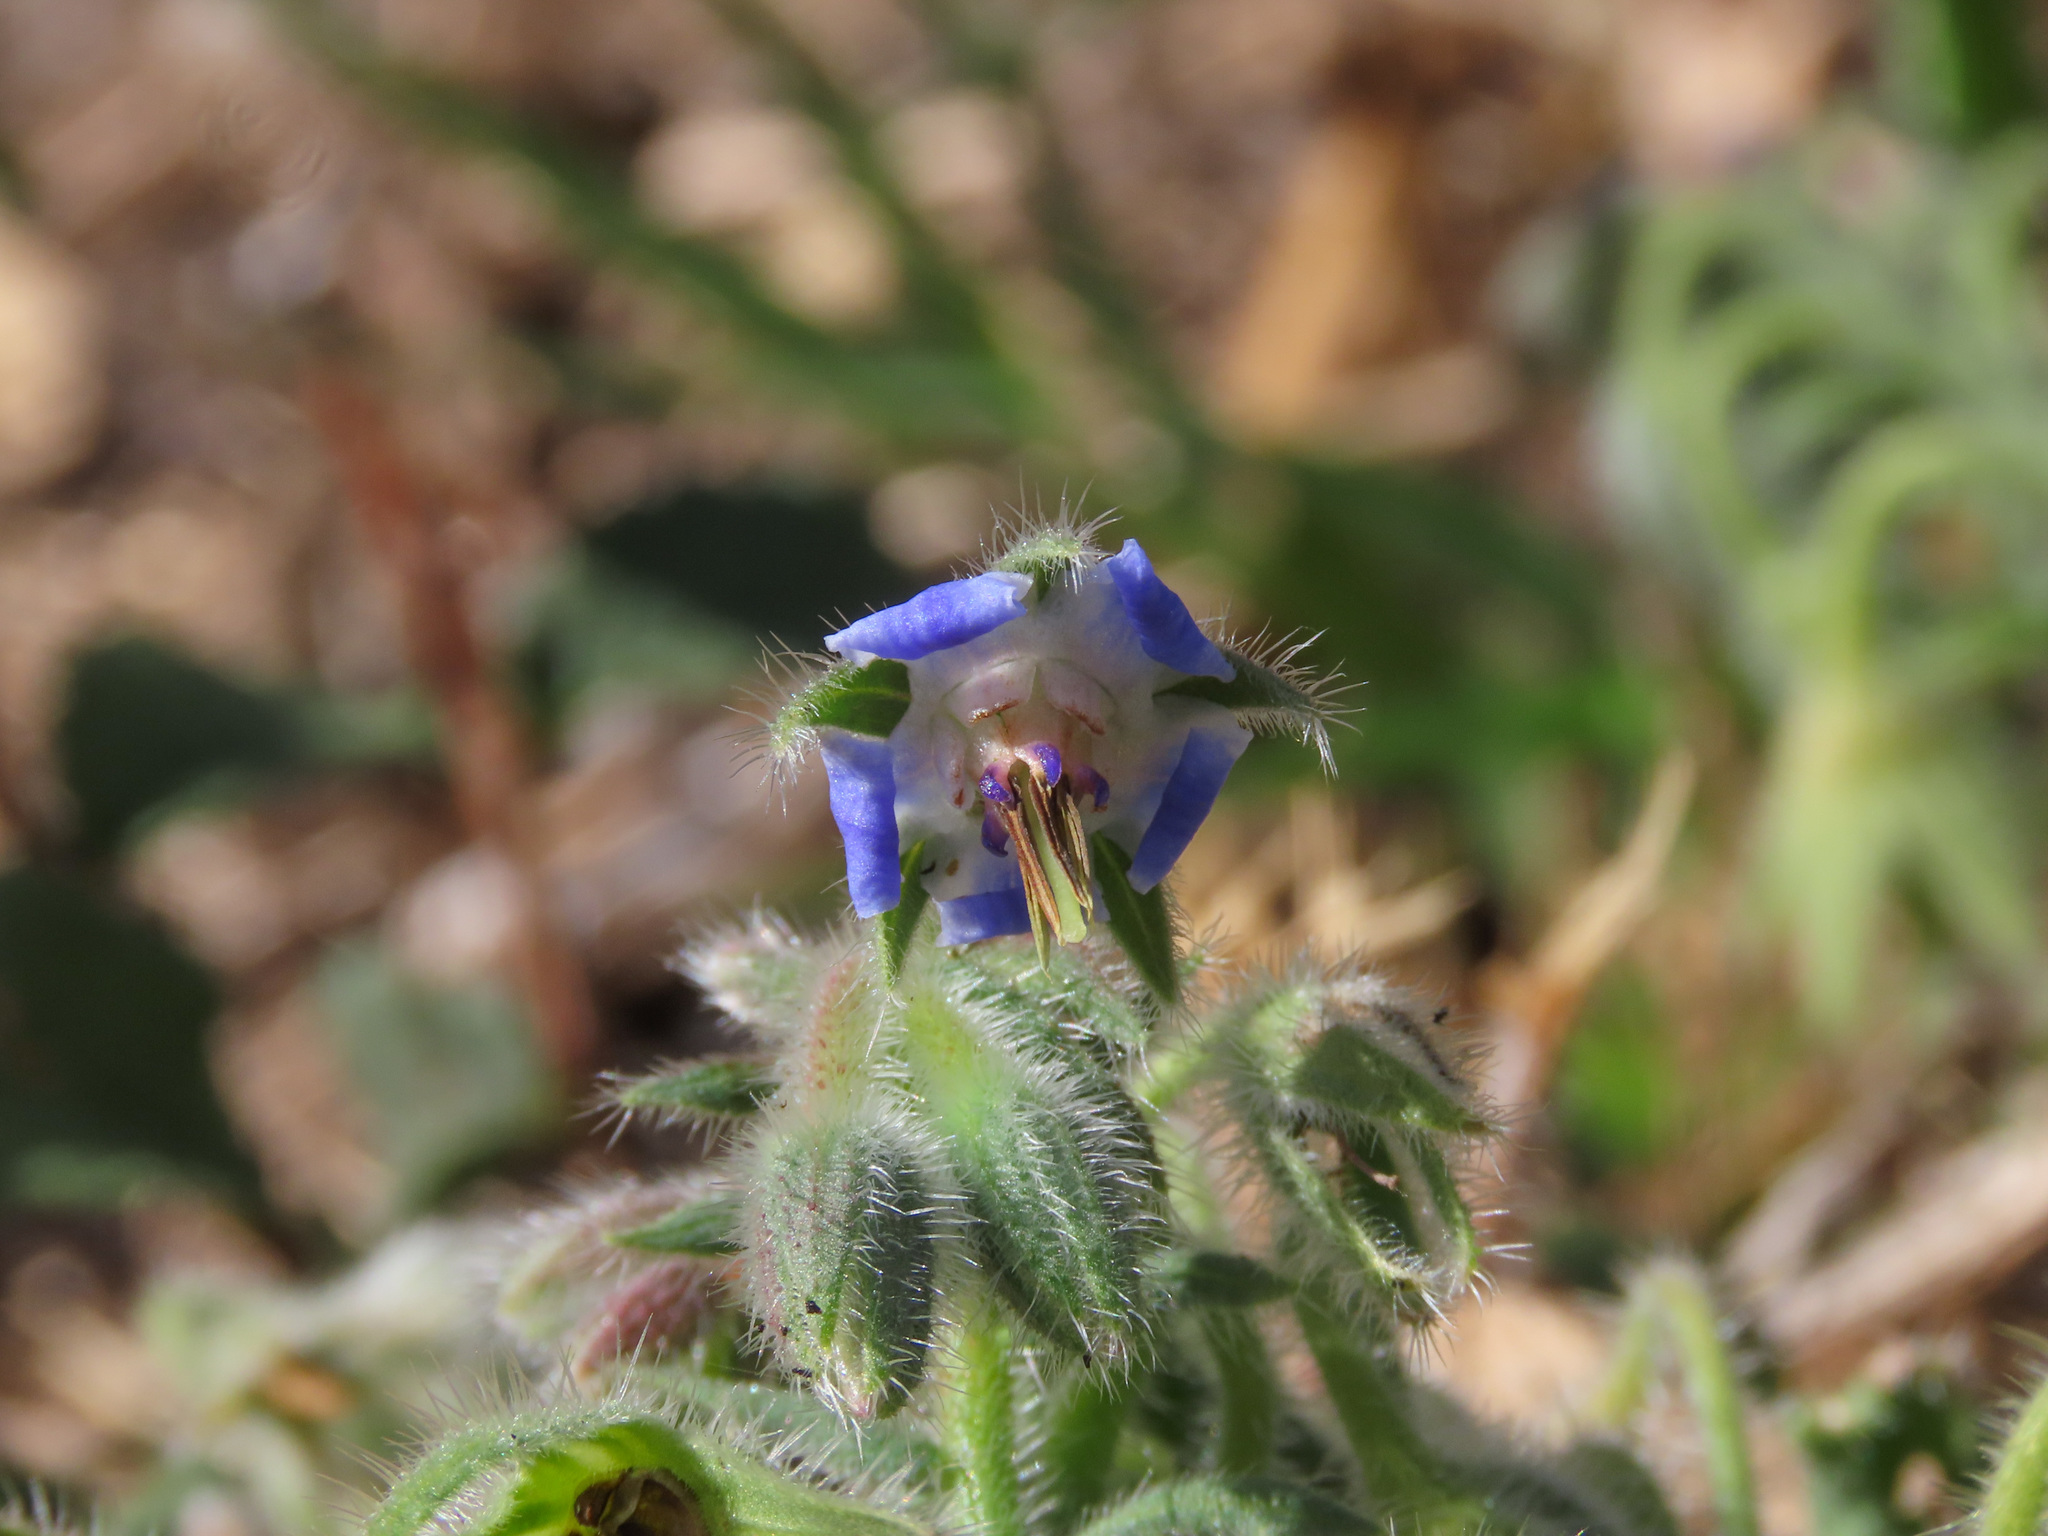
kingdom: Plantae
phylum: Tracheophyta
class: Magnoliopsida
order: Boraginales
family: Boraginaceae
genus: Borago
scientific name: Borago officinalis
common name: Borage
